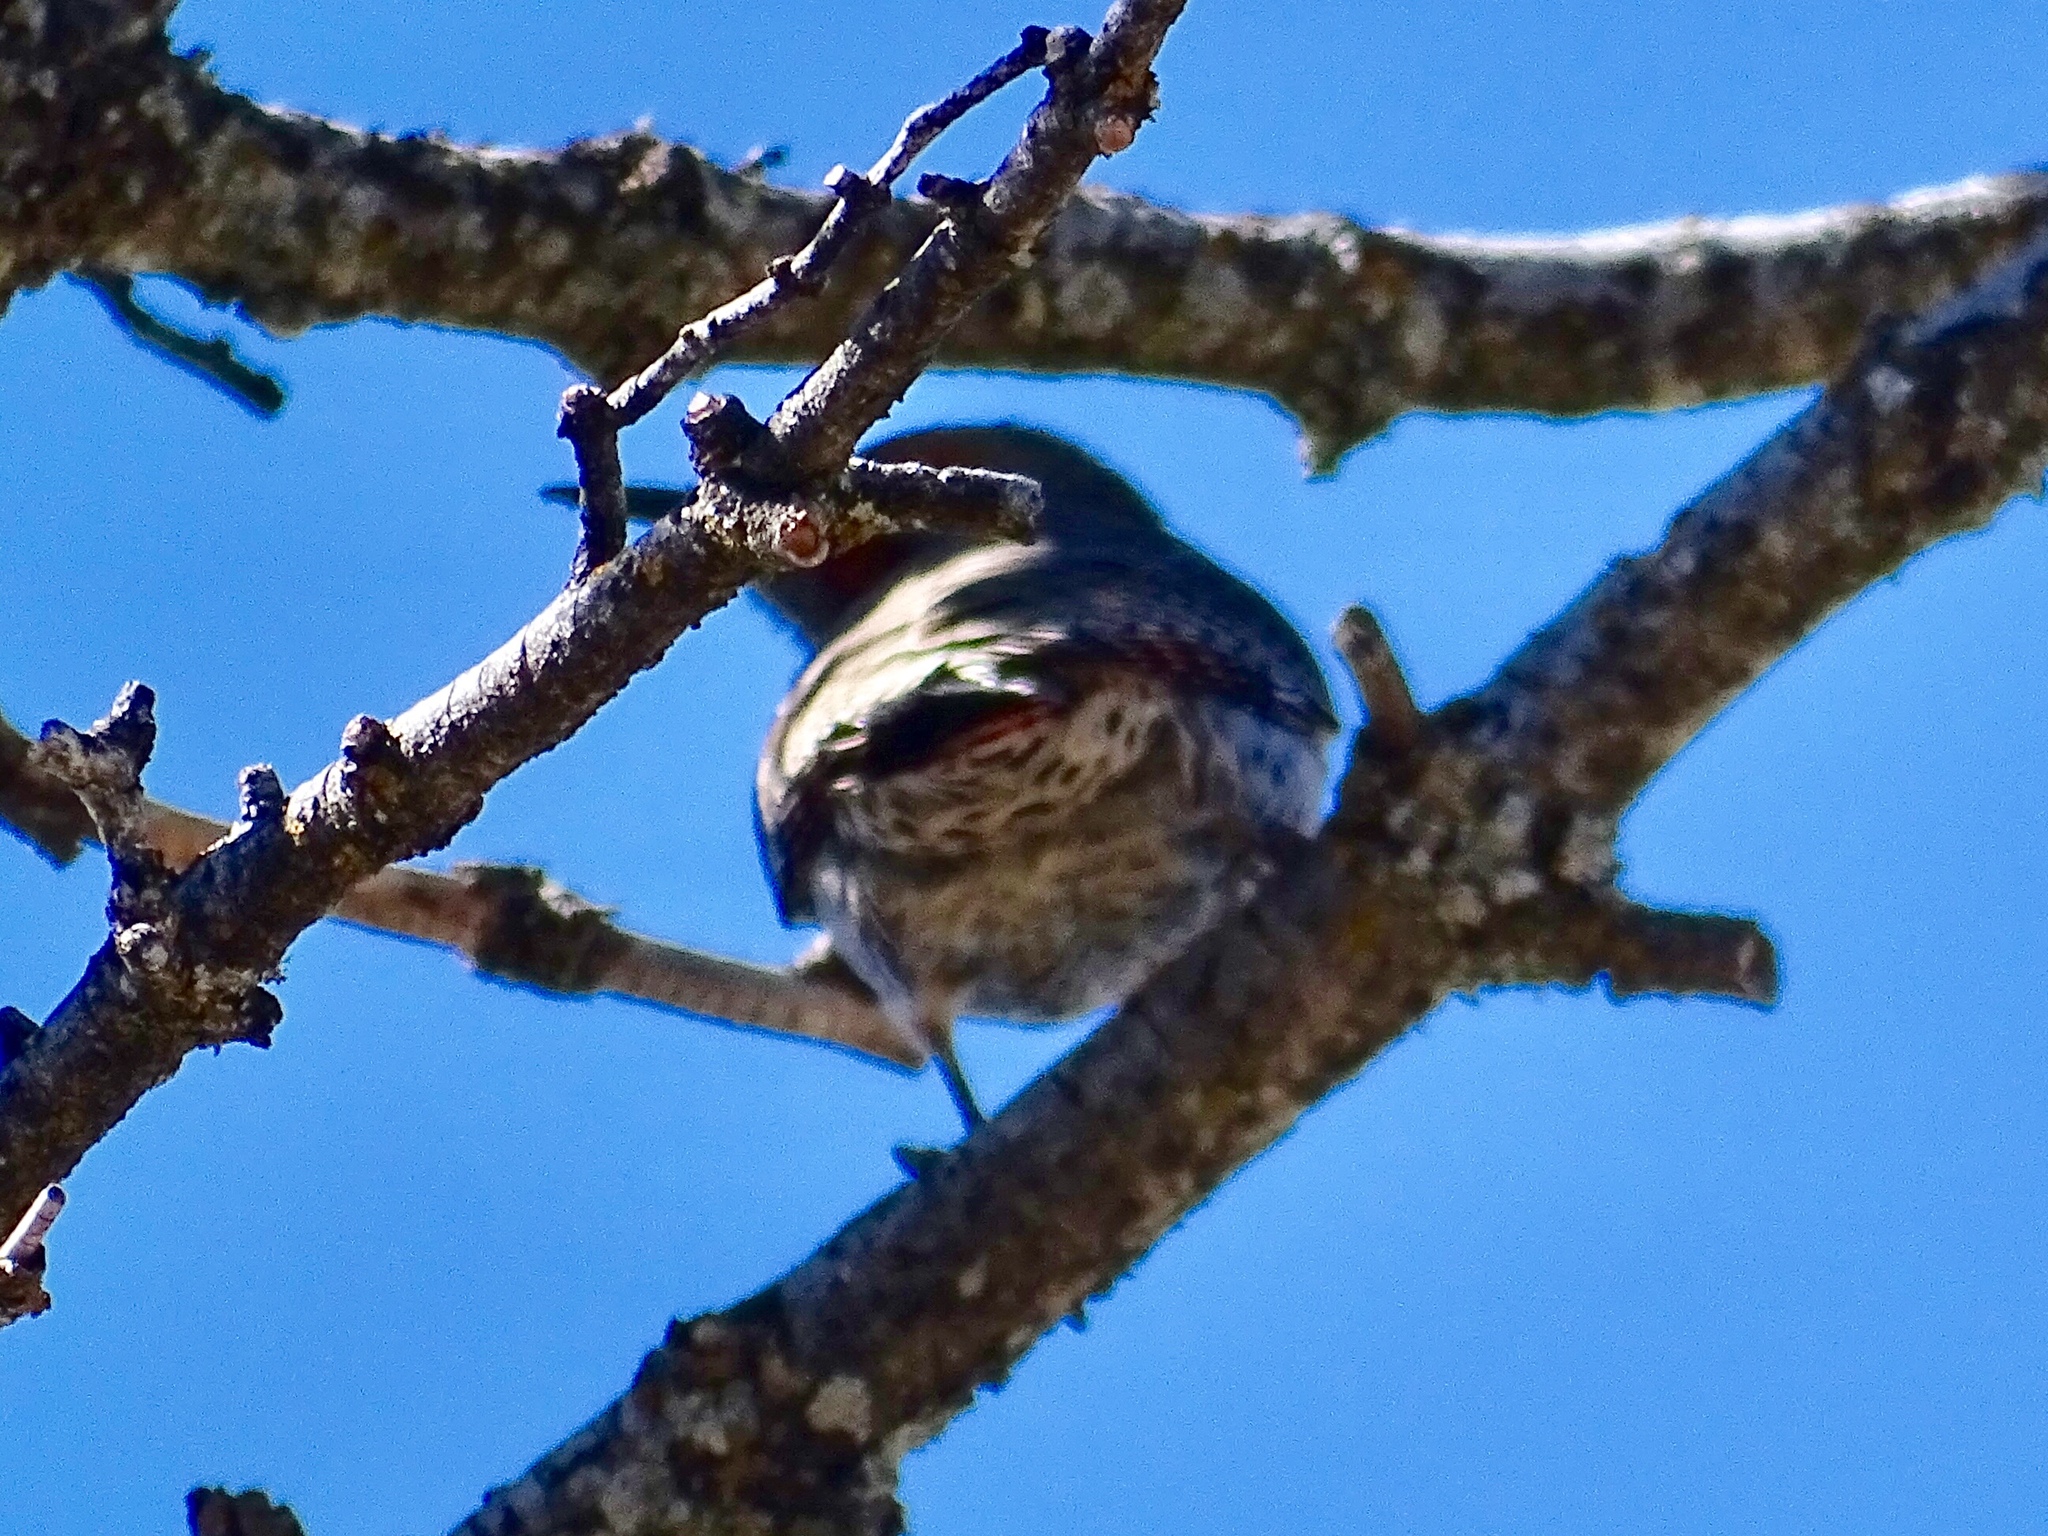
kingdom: Animalia
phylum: Chordata
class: Aves
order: Piciformes
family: Picidae
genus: Colaptes
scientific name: Colaptes auratus
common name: Northern flicker
